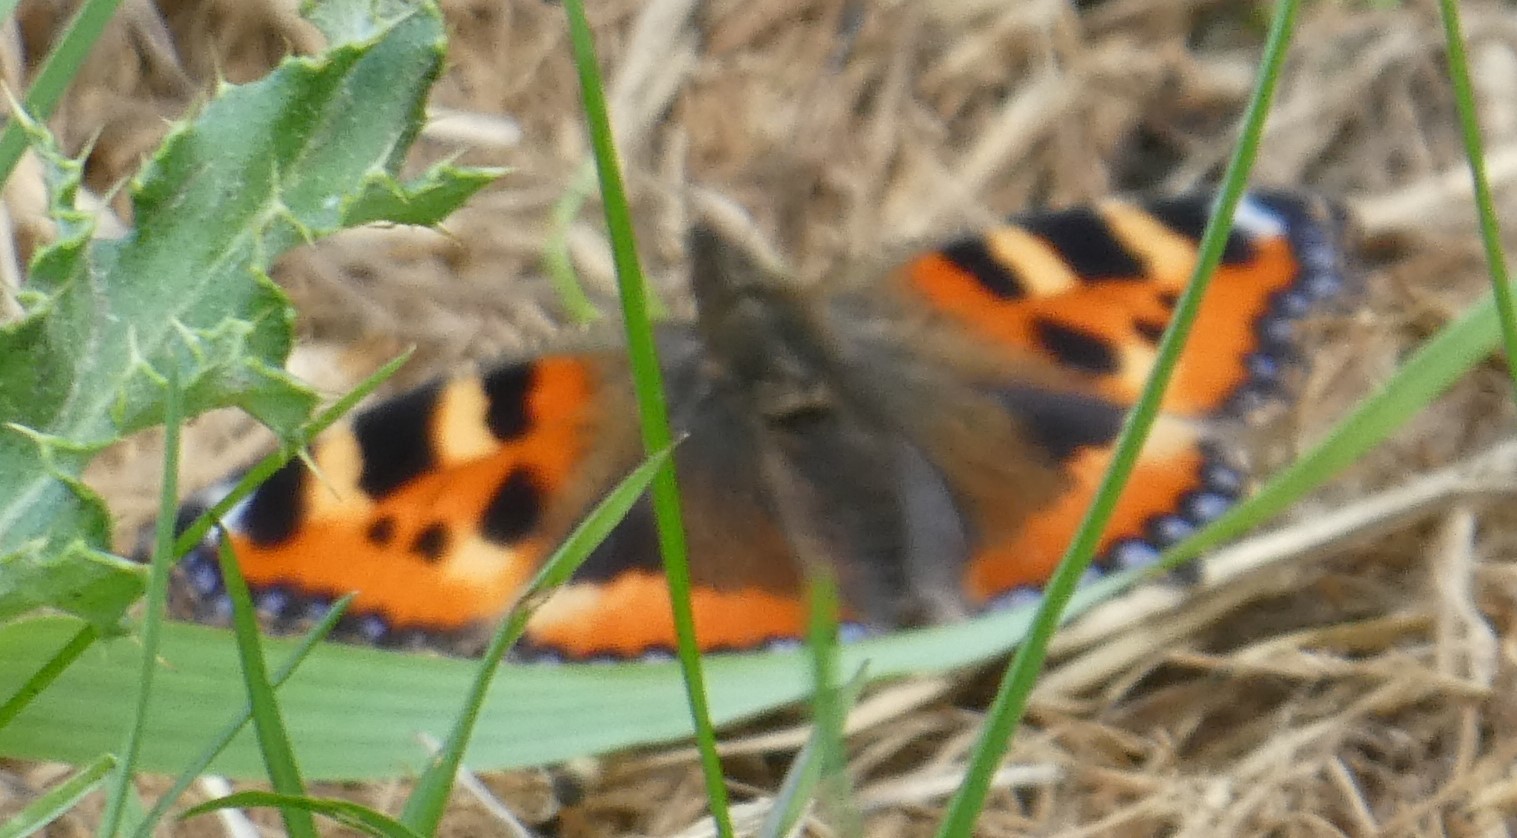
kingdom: Animalia
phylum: Arthropoda
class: Insecta
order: Lepidoptera
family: Nymphalidae
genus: Aglais
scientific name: Aglais urticae
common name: Small tortoiseshell
